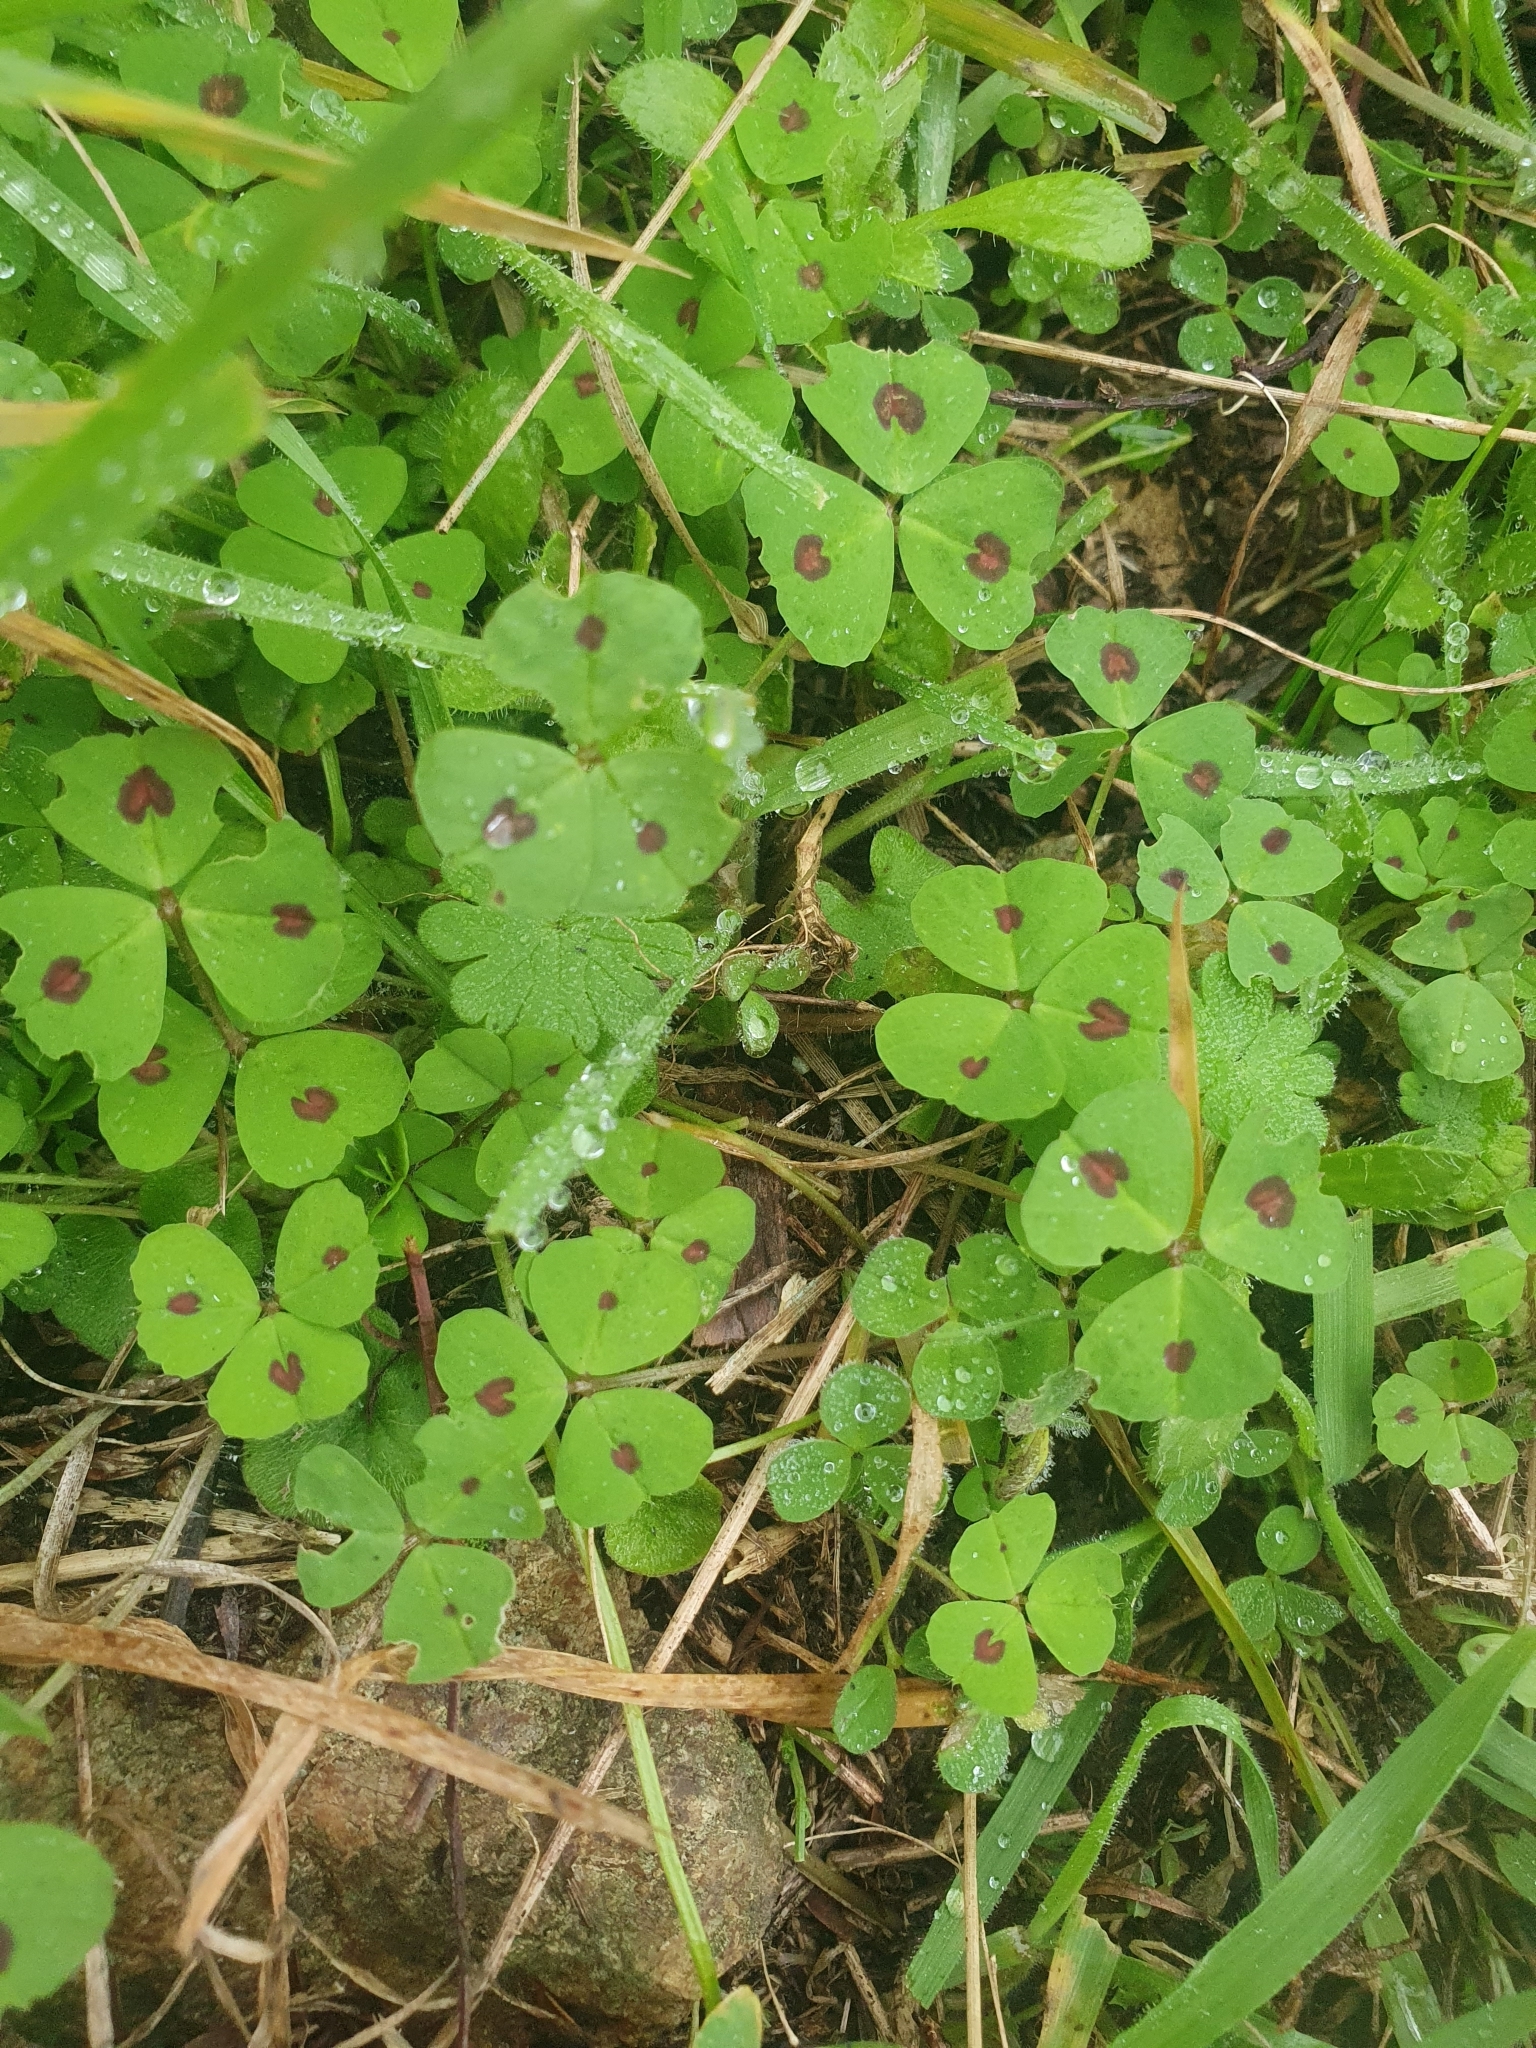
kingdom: Plantae
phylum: Tracheophyta
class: Magnoliopsida
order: Fabales
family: Fabaceae
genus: Medicago
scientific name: Medicago arabica
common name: Spotted medick
